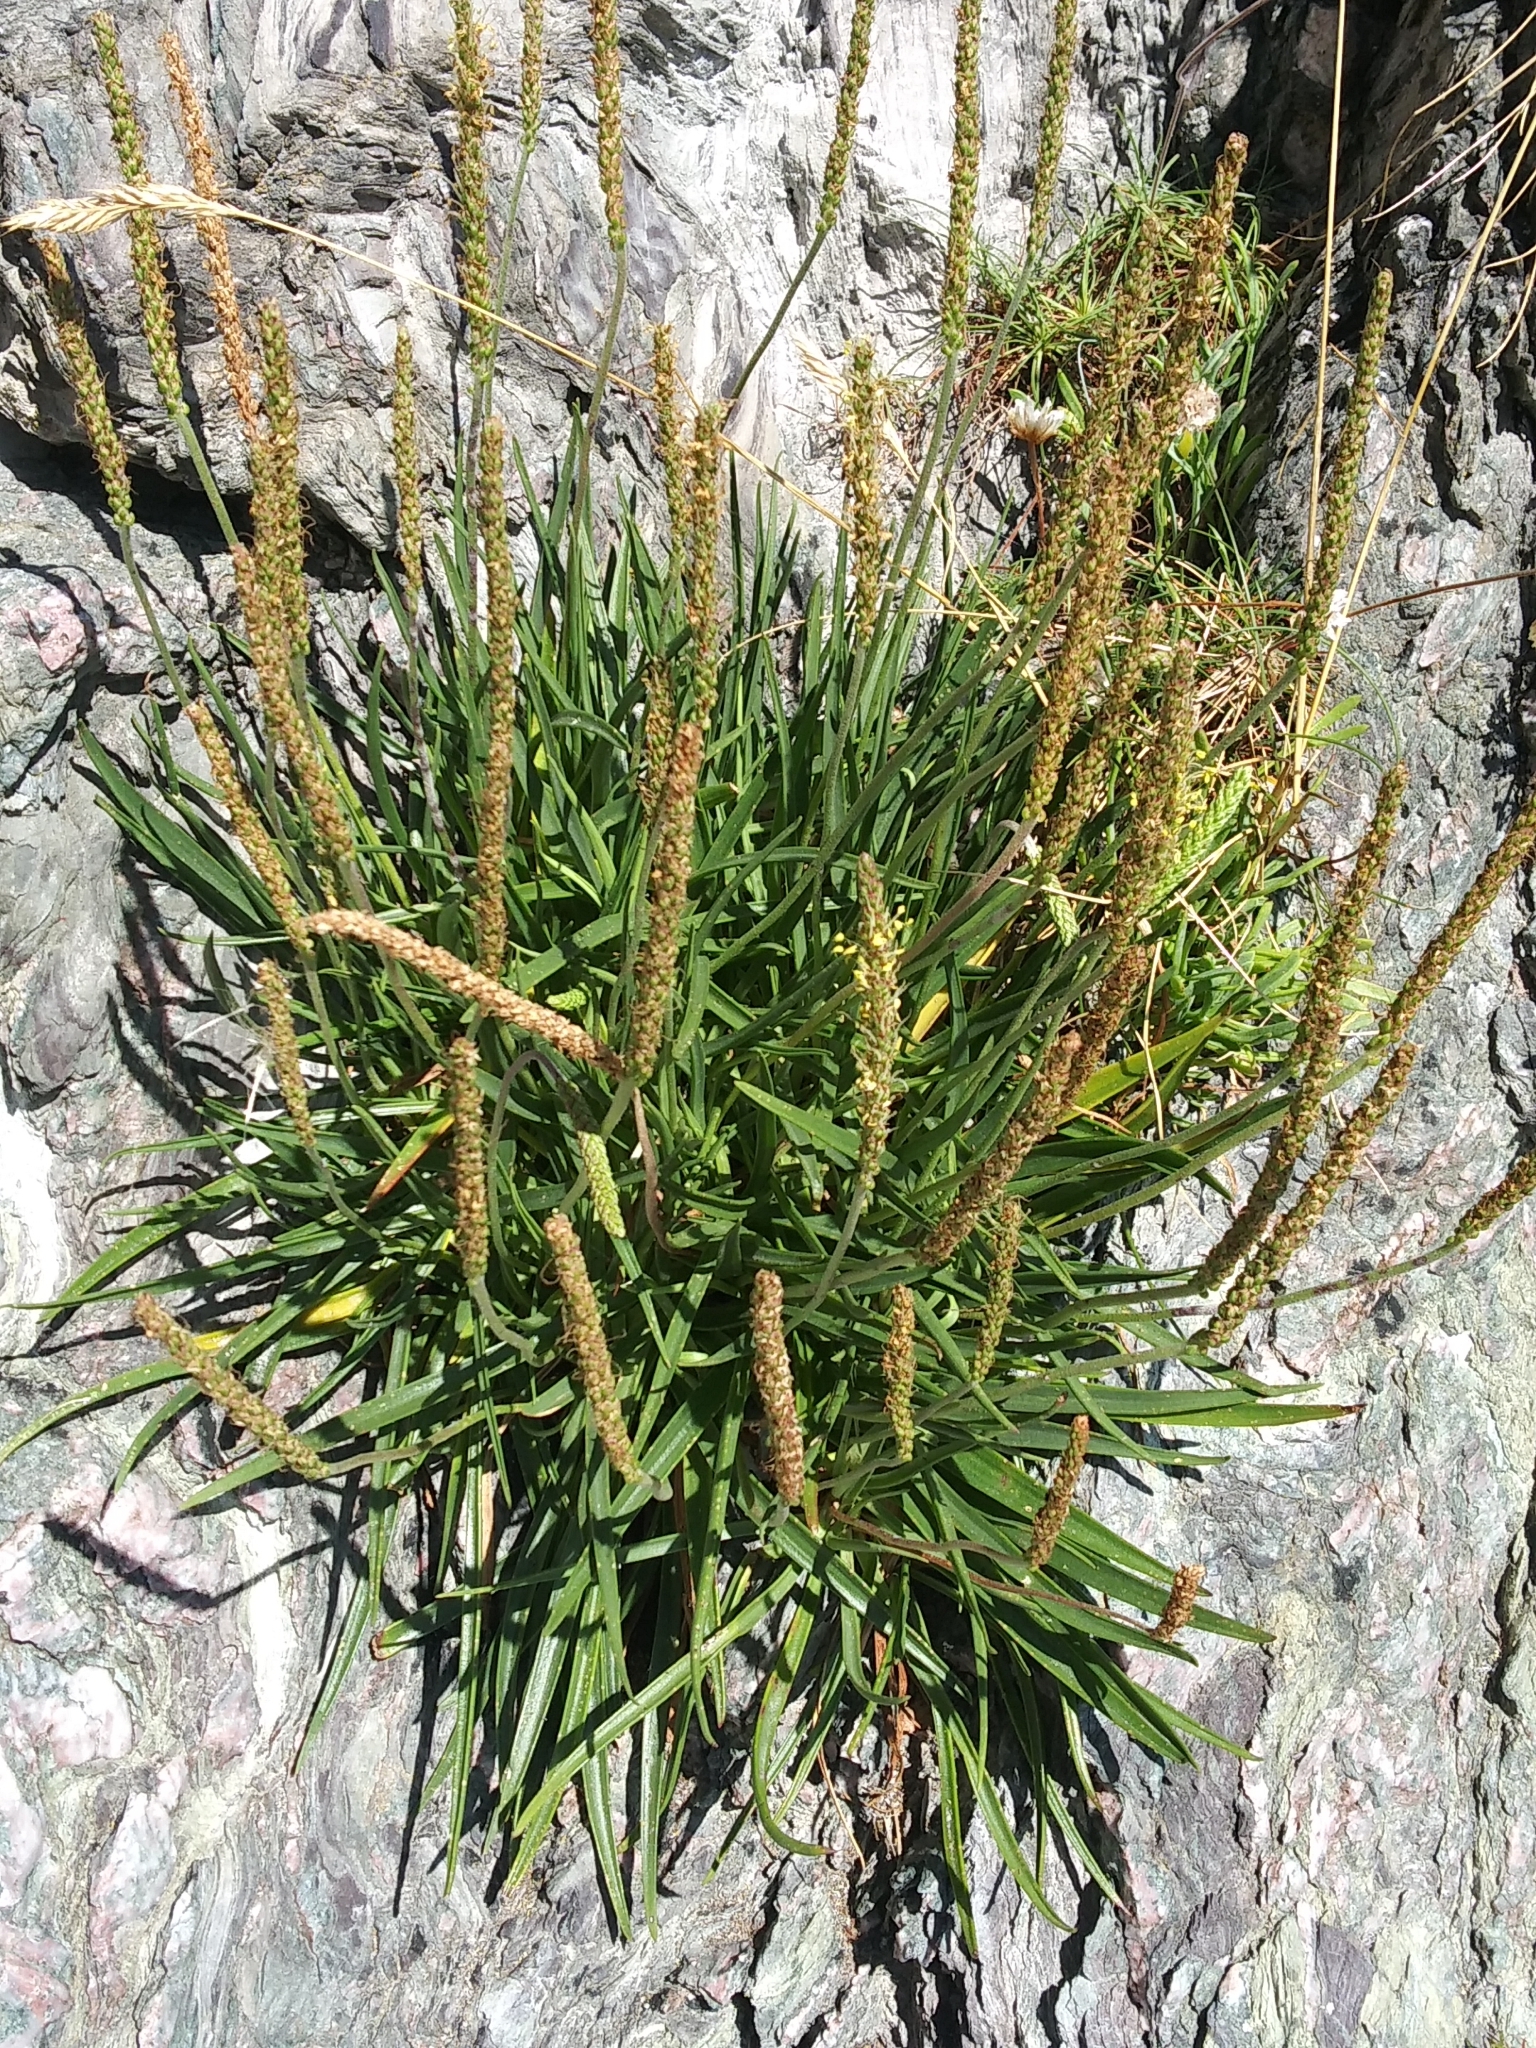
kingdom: Plantae
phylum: Tracheophyta
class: Magnoliopsida
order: Lamiales
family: Plantaginaceae
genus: Plantago
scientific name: Plantago maritima
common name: Sea plantain
